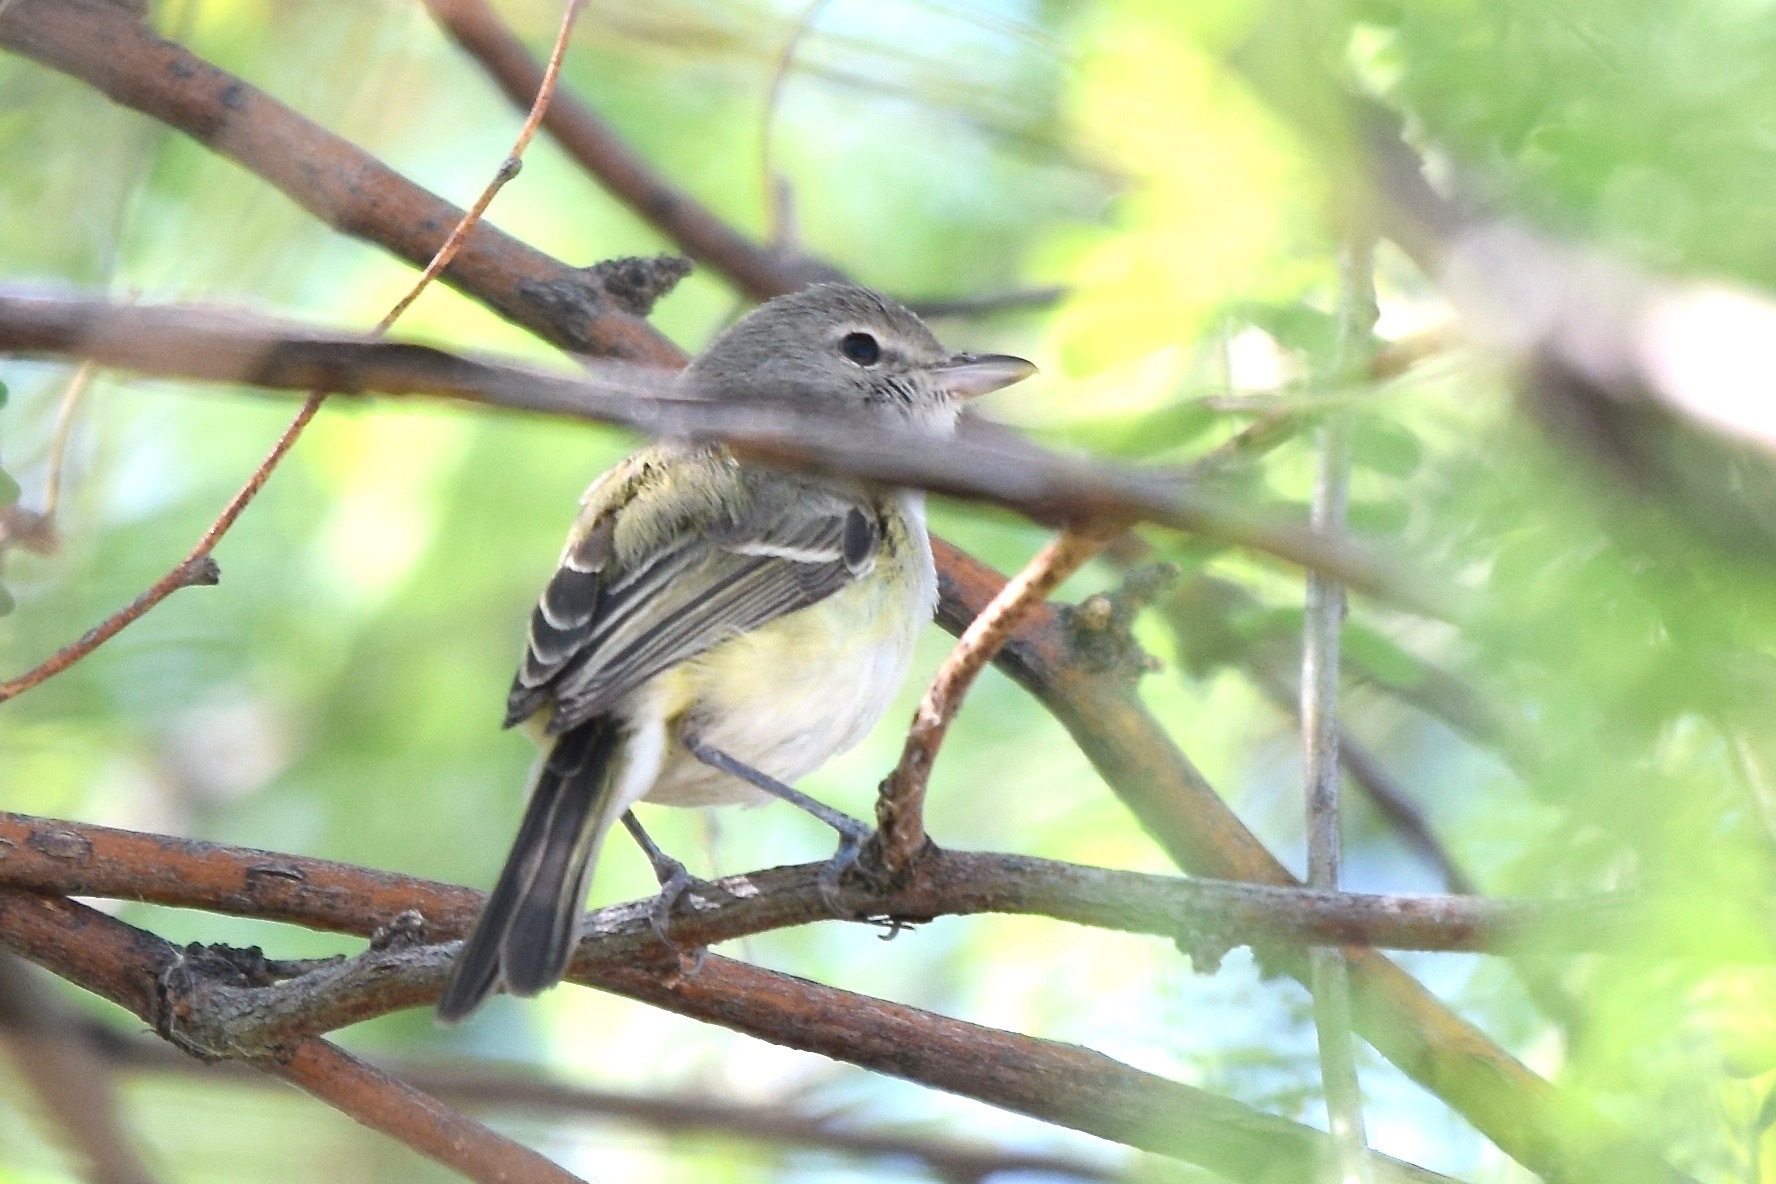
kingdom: Animalia
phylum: Chordata
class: Aves
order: Passeriformes
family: Vireonidae
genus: Vireo
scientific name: Vireo bellii
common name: Bell's vireo
